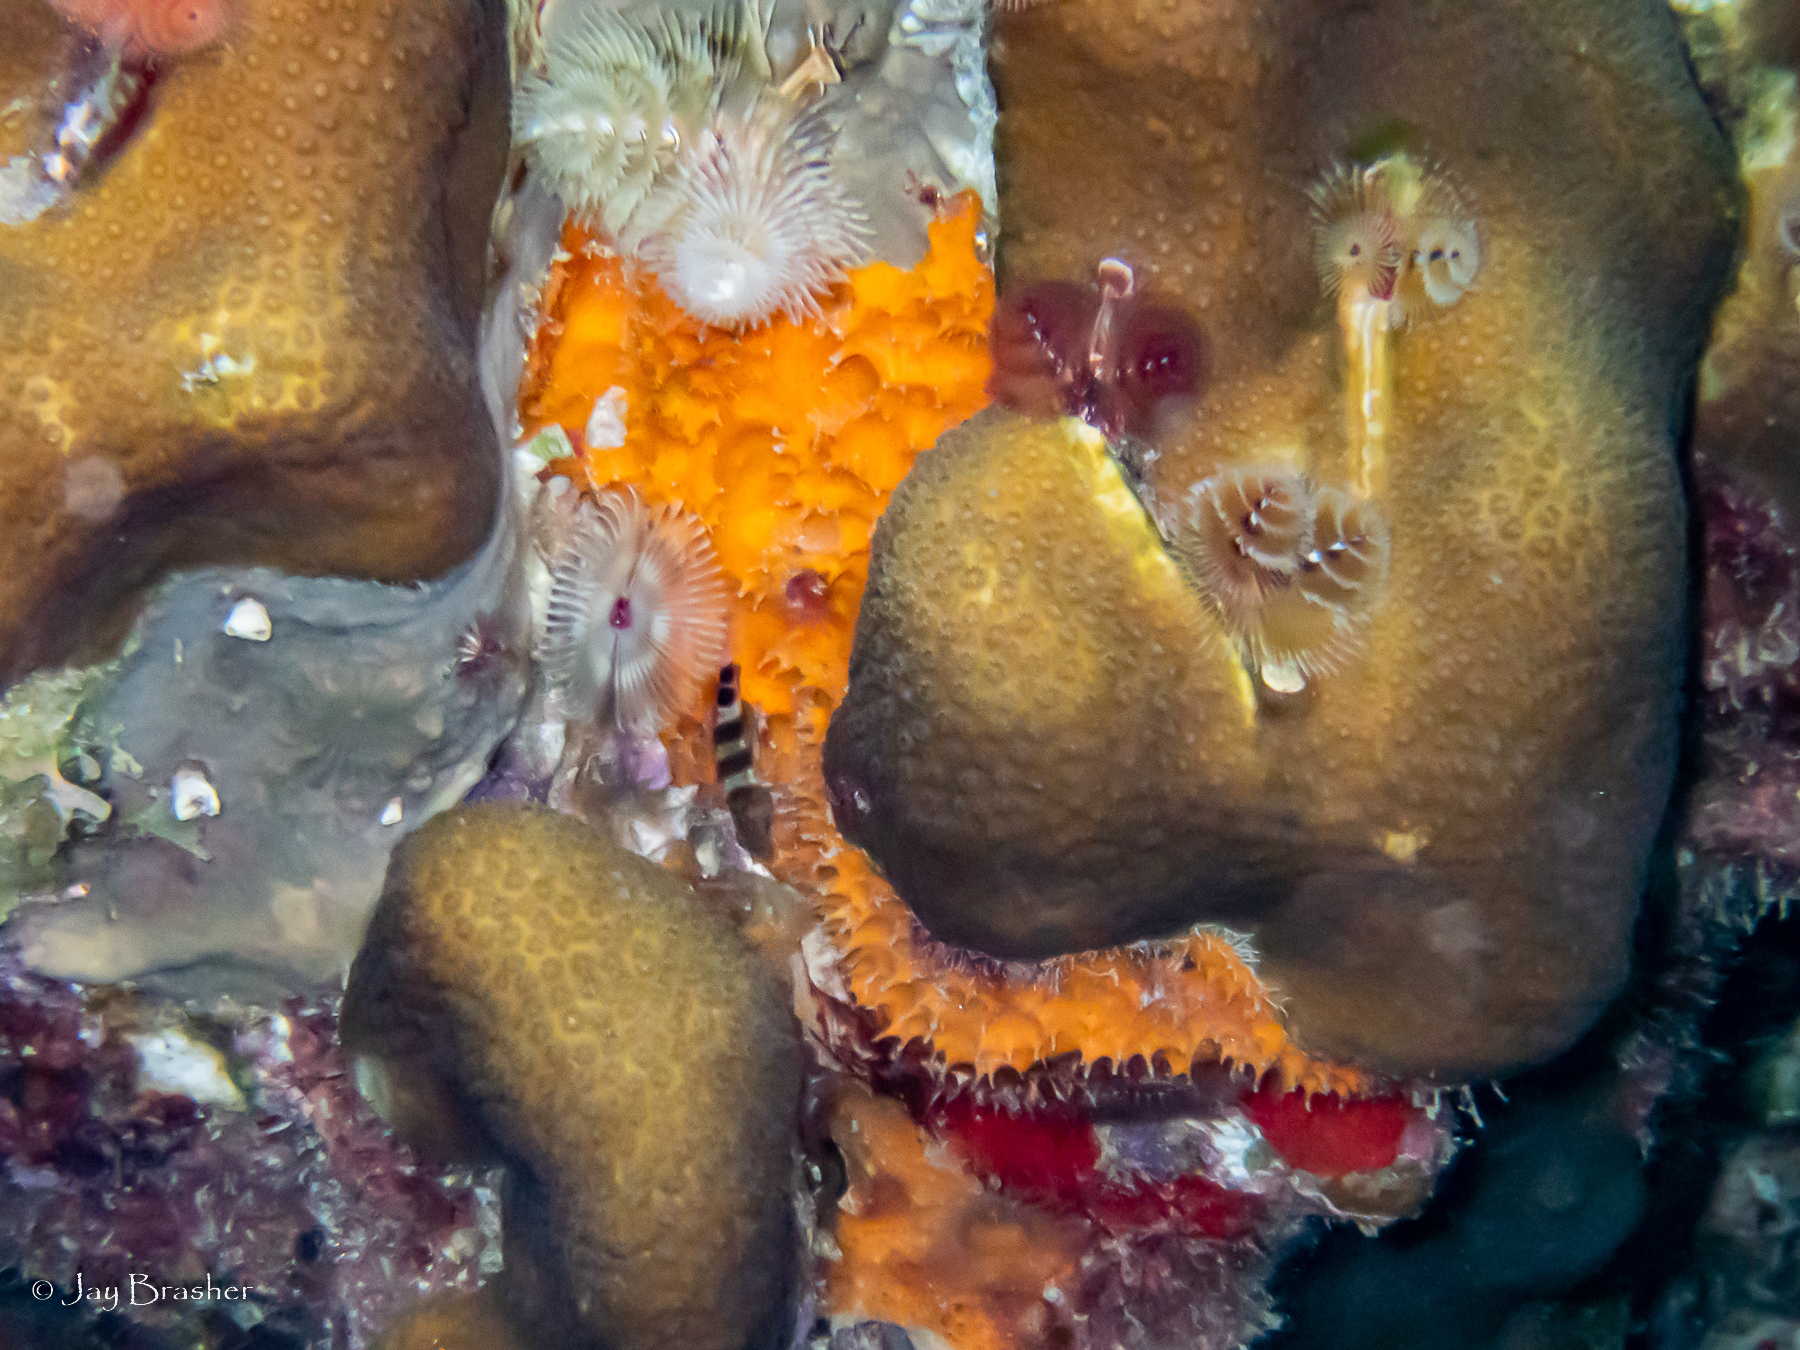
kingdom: Animalia
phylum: Porifera
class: Demospongiae
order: Scopalinida
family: Scopalinidae
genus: Scopalina
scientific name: Scopalina ruetzleri
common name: Orange lumpy encrusting sponge
